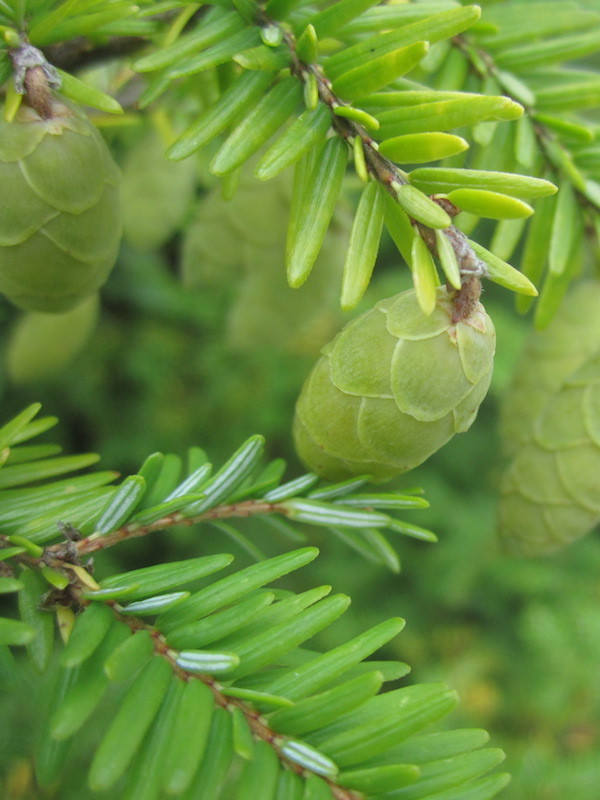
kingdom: Plantae
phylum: Tracheophyta
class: Pinopsida
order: Pinales
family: Pinaceae
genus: Tsuga
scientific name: Tsuga canadensis
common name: Eastern hemlock
